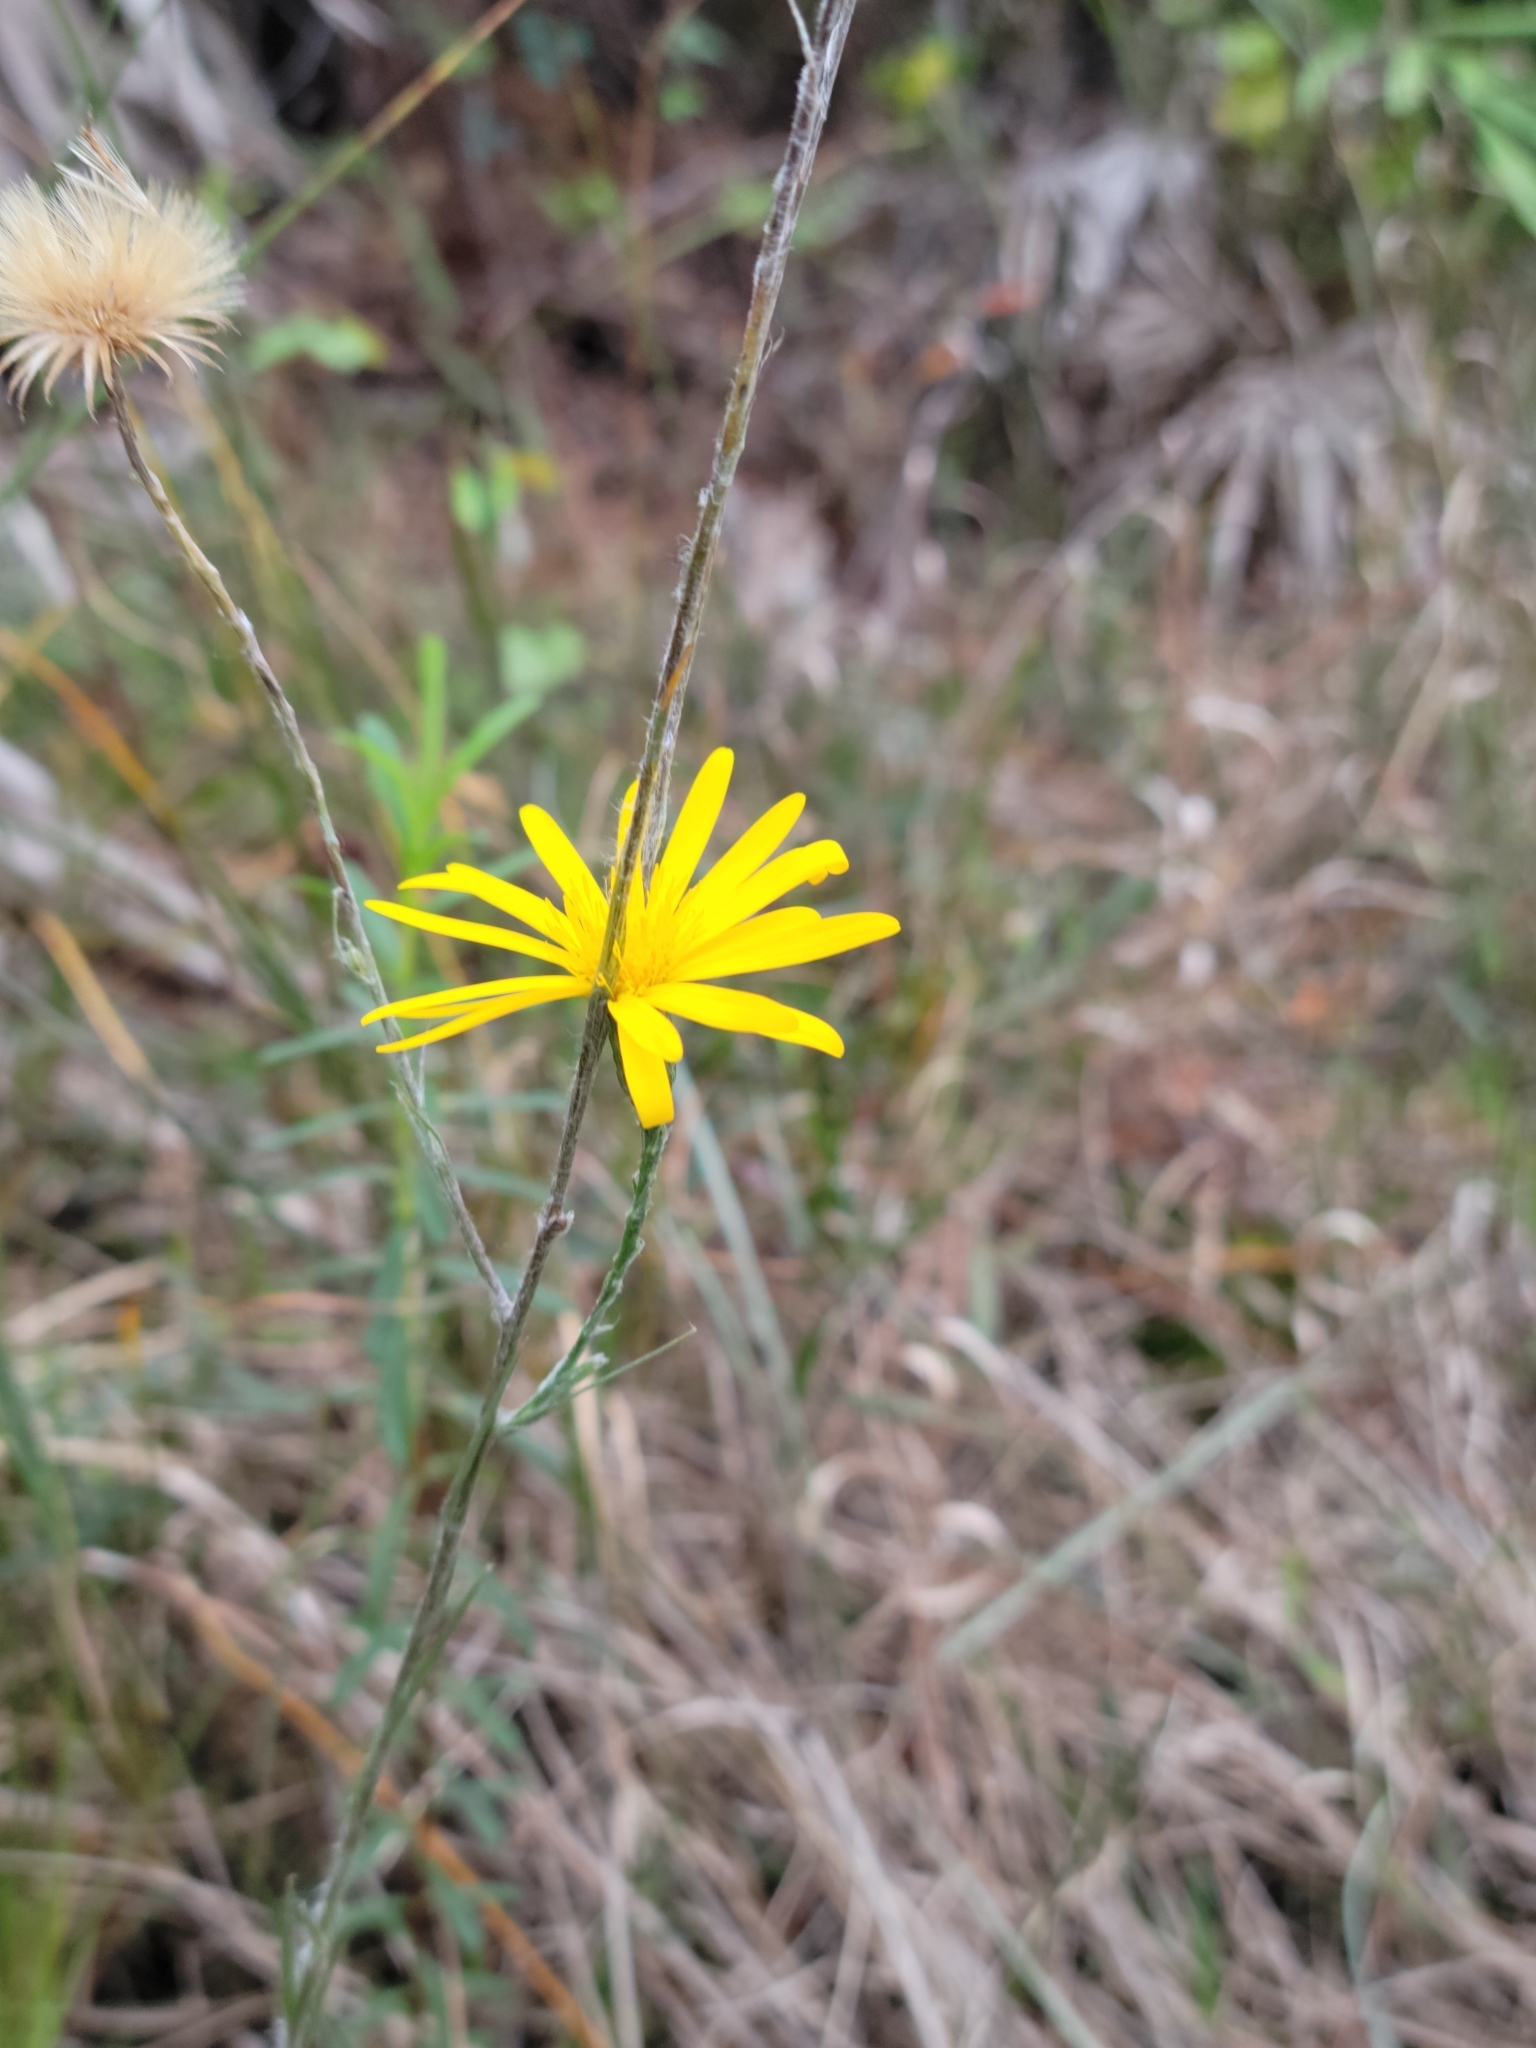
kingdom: Plantae
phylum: Tracheophyta
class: Magnoliopsida
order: Asterales
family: Asteraceae
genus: Pityopsis
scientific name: Pityopsis tracyi
